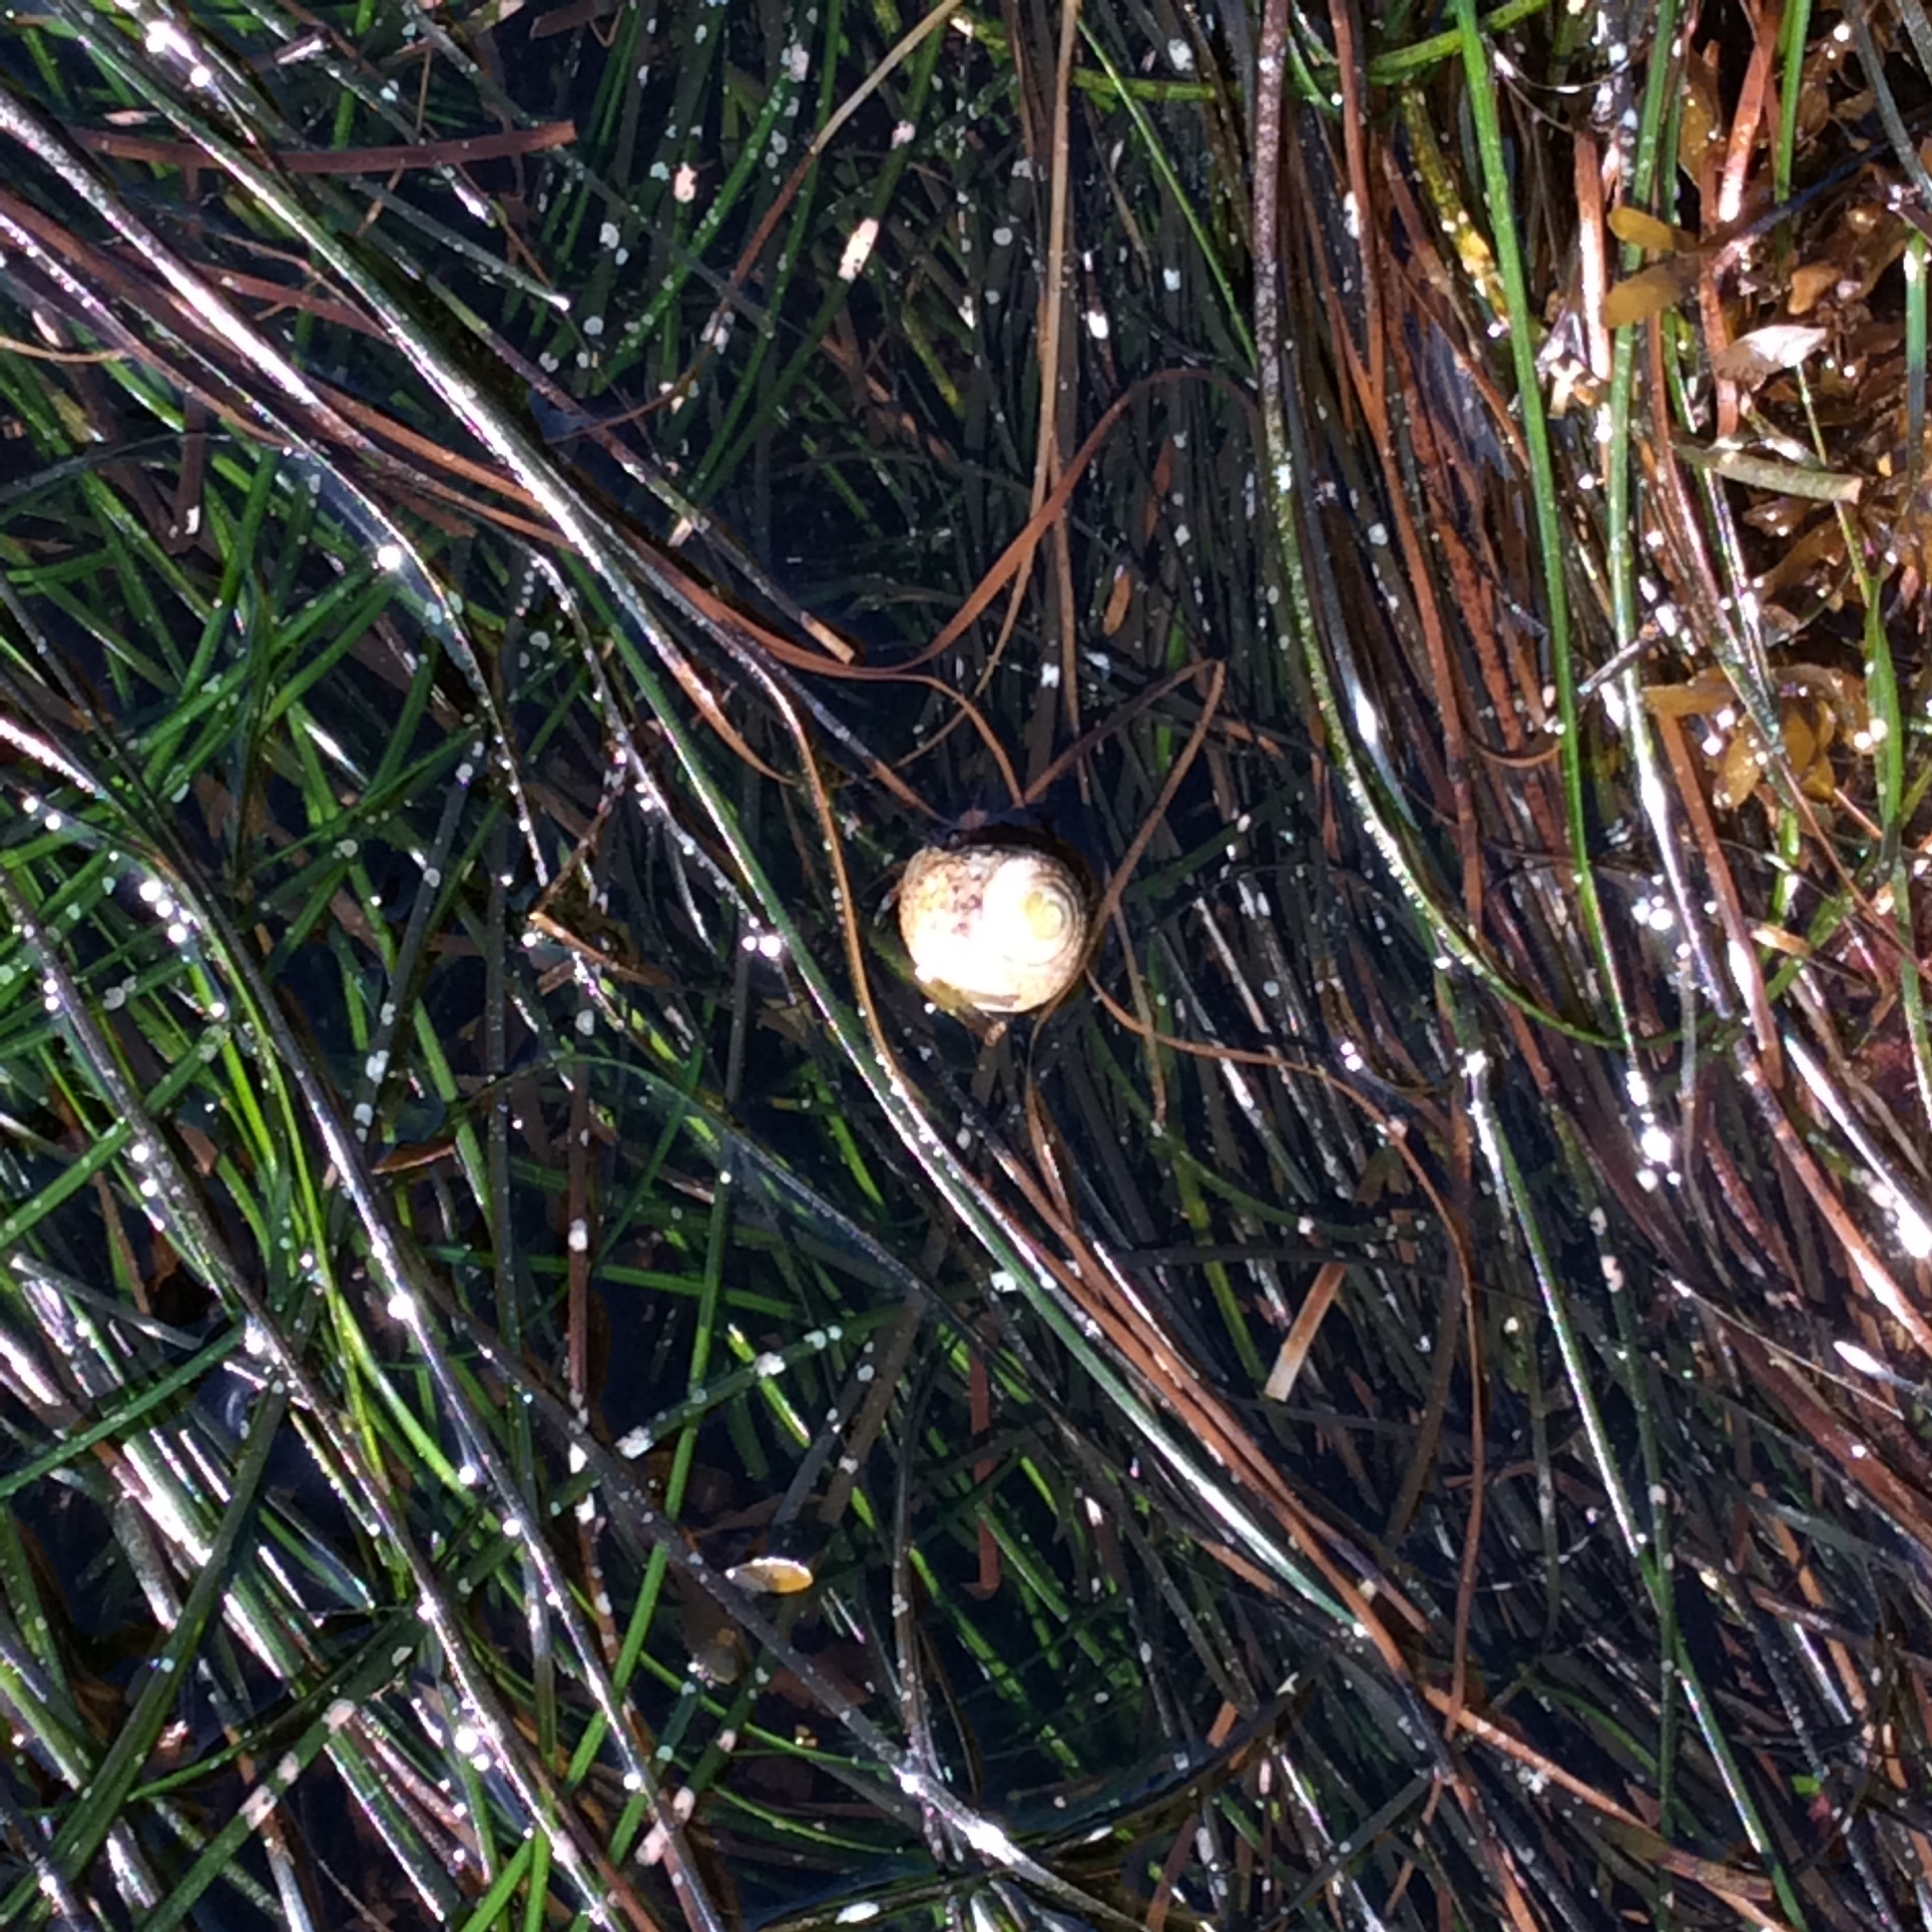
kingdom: Animalia
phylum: Mollusca
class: Gastropoda
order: Trochida
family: Tegulidae
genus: Tegula
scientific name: Tegula eiseni
